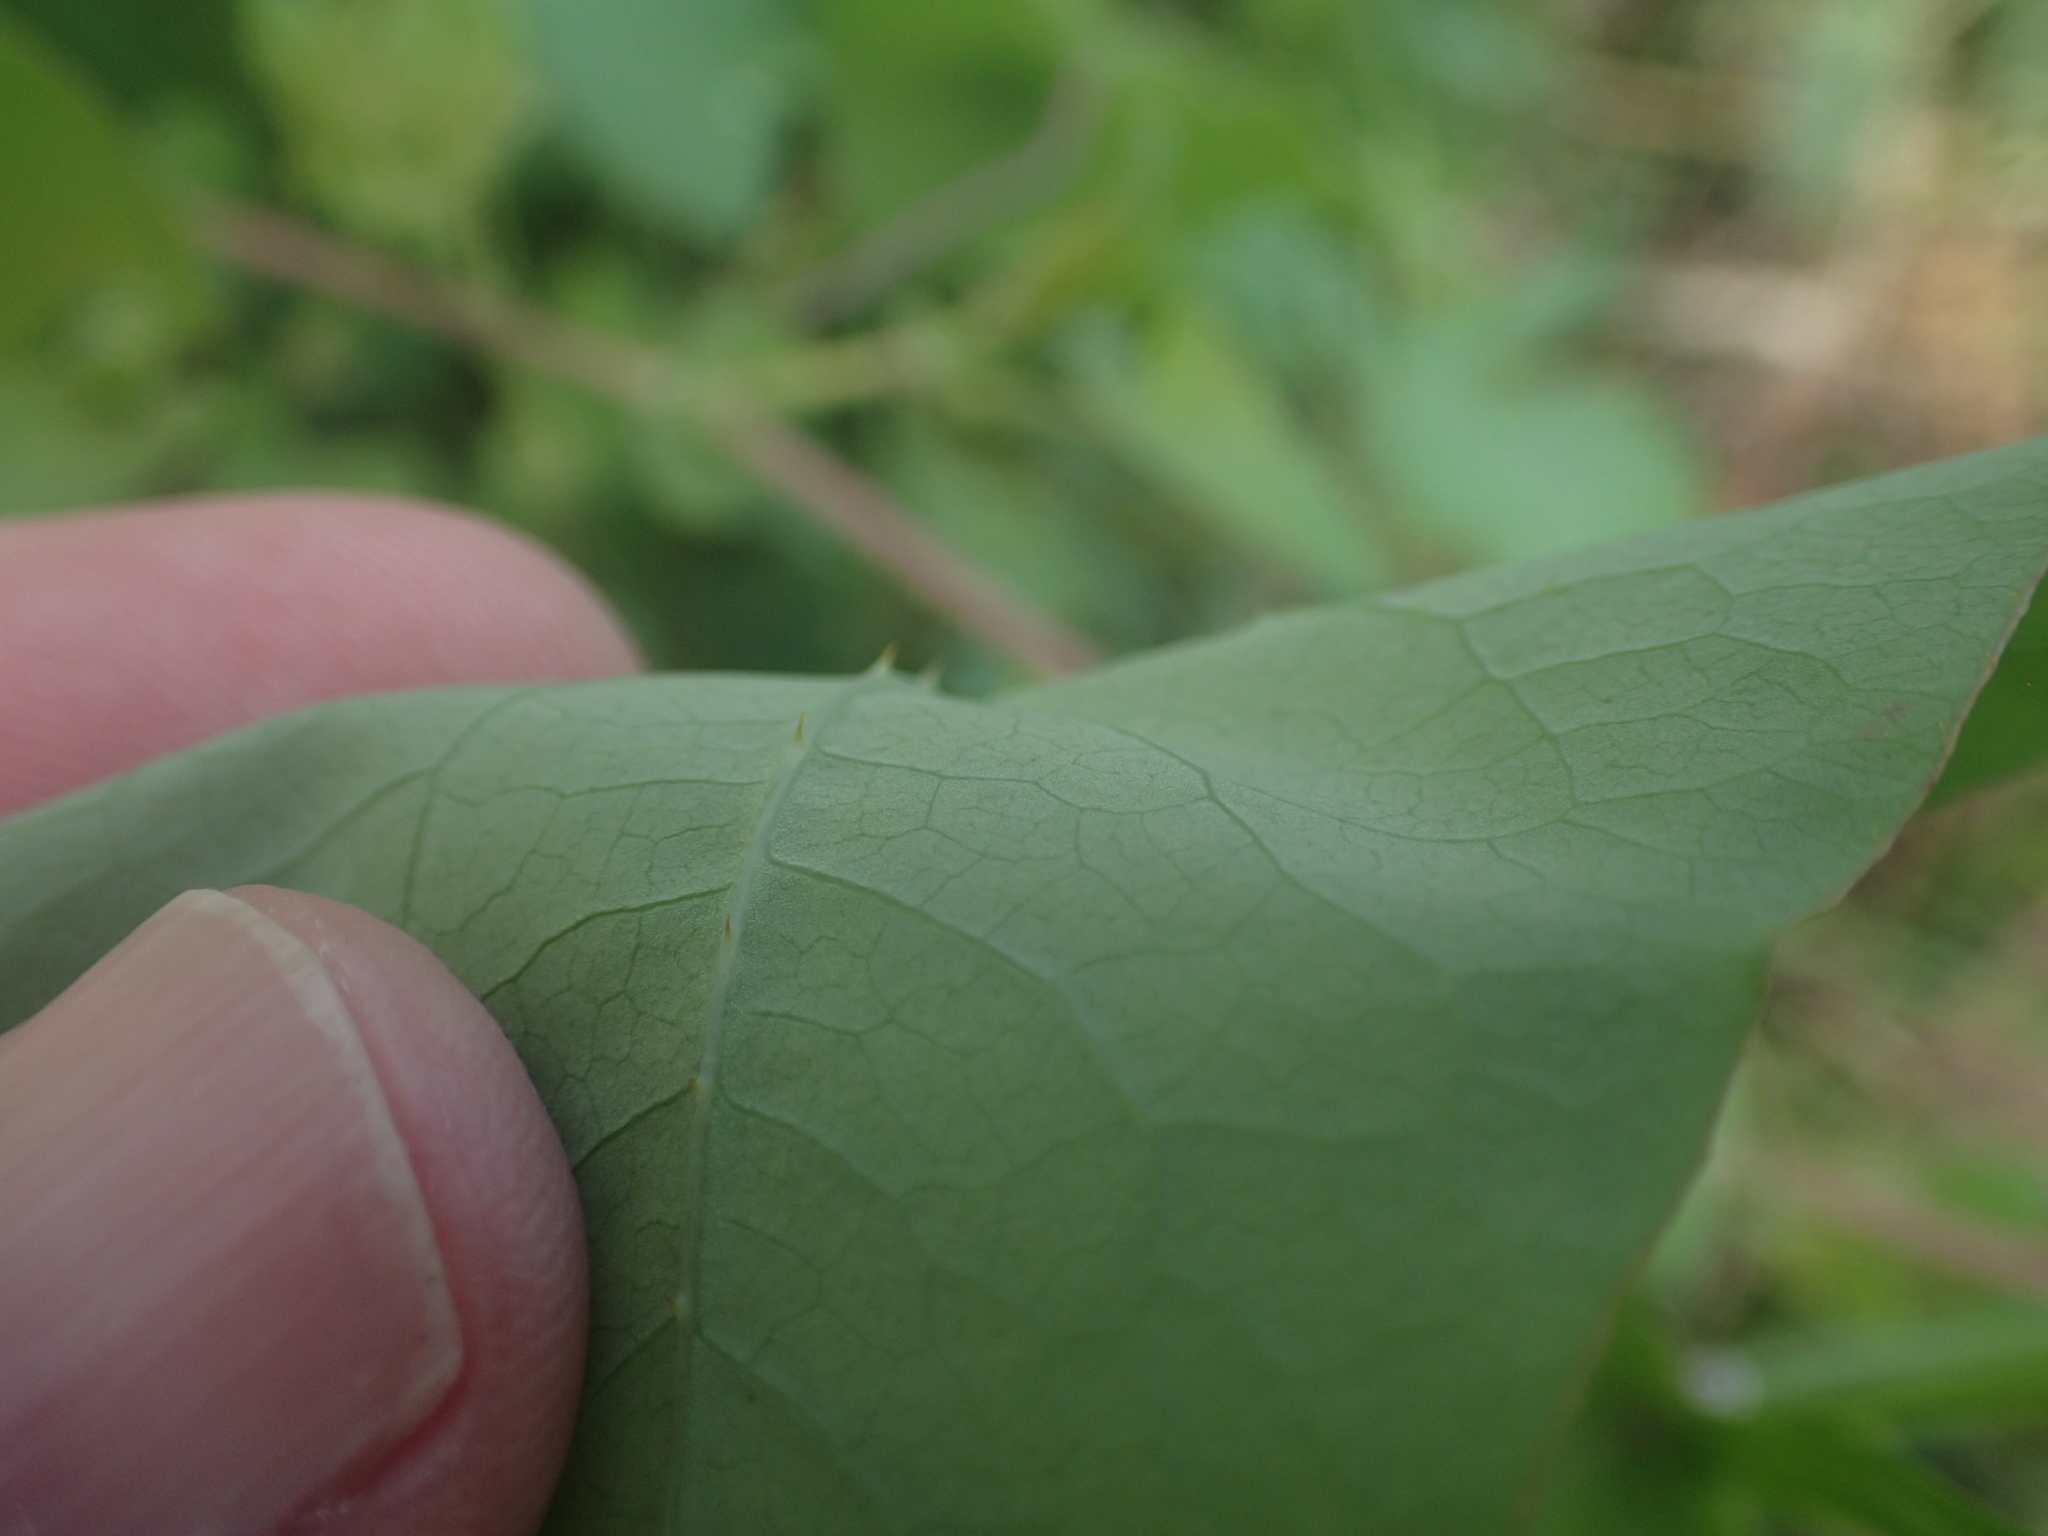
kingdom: Plantae
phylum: Tracheophyta
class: Magnoliopsida
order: Caryophyllales
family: Polygonaceae
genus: Persicaria
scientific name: Persicaria perfoliata
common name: Asiatic tearthumb
